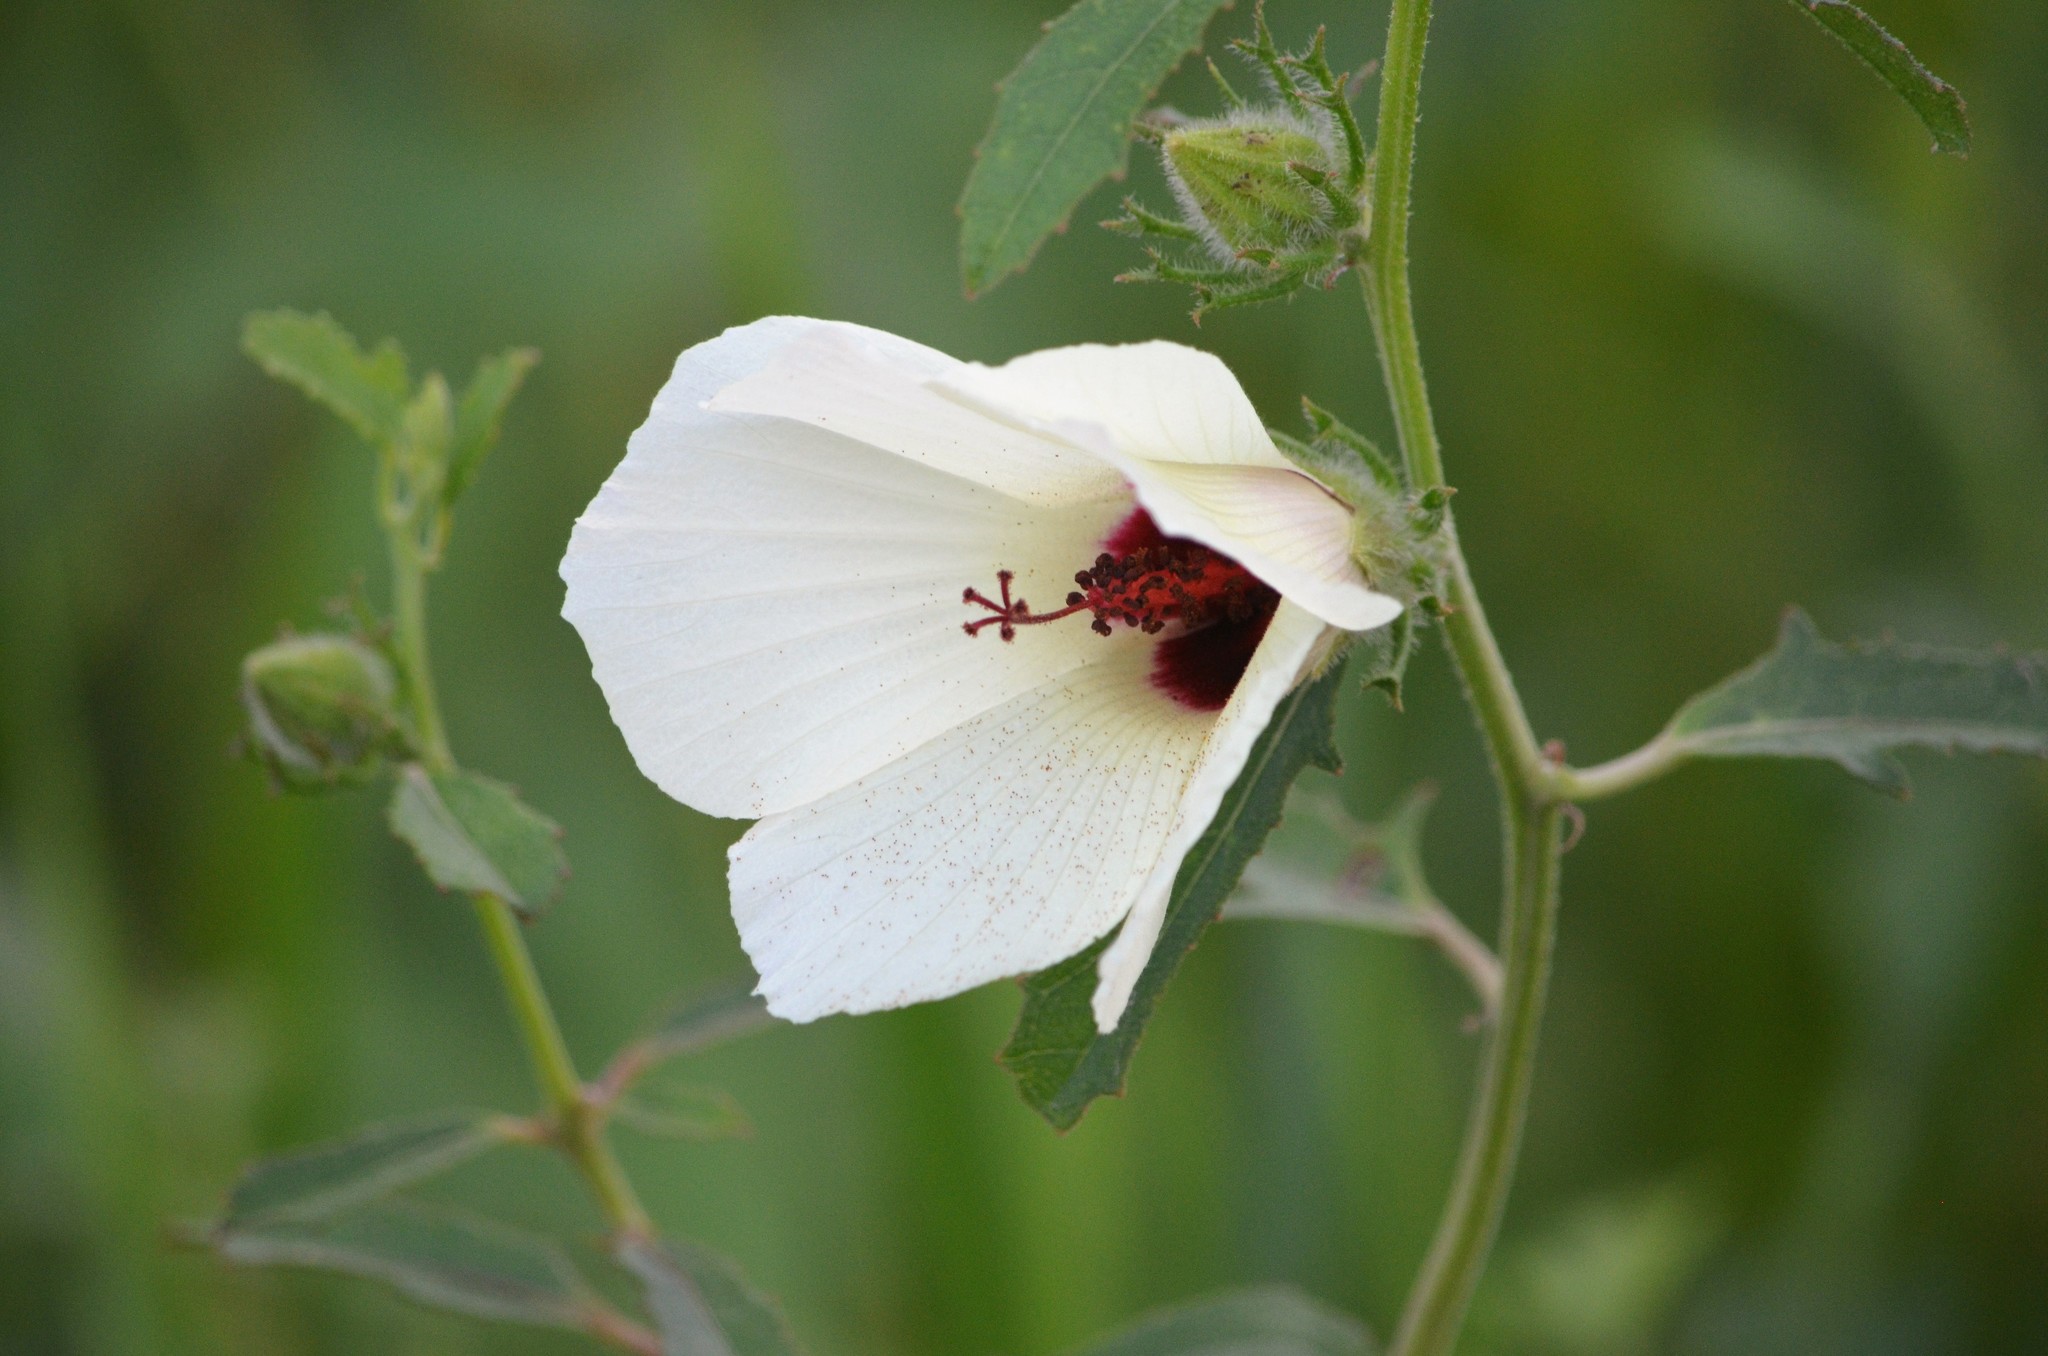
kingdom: Plantae
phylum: Tracheophyta
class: Magnoliopsida
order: Malvales
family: Malvaceae
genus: Hibiscus
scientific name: Hibiscus aculeatus
